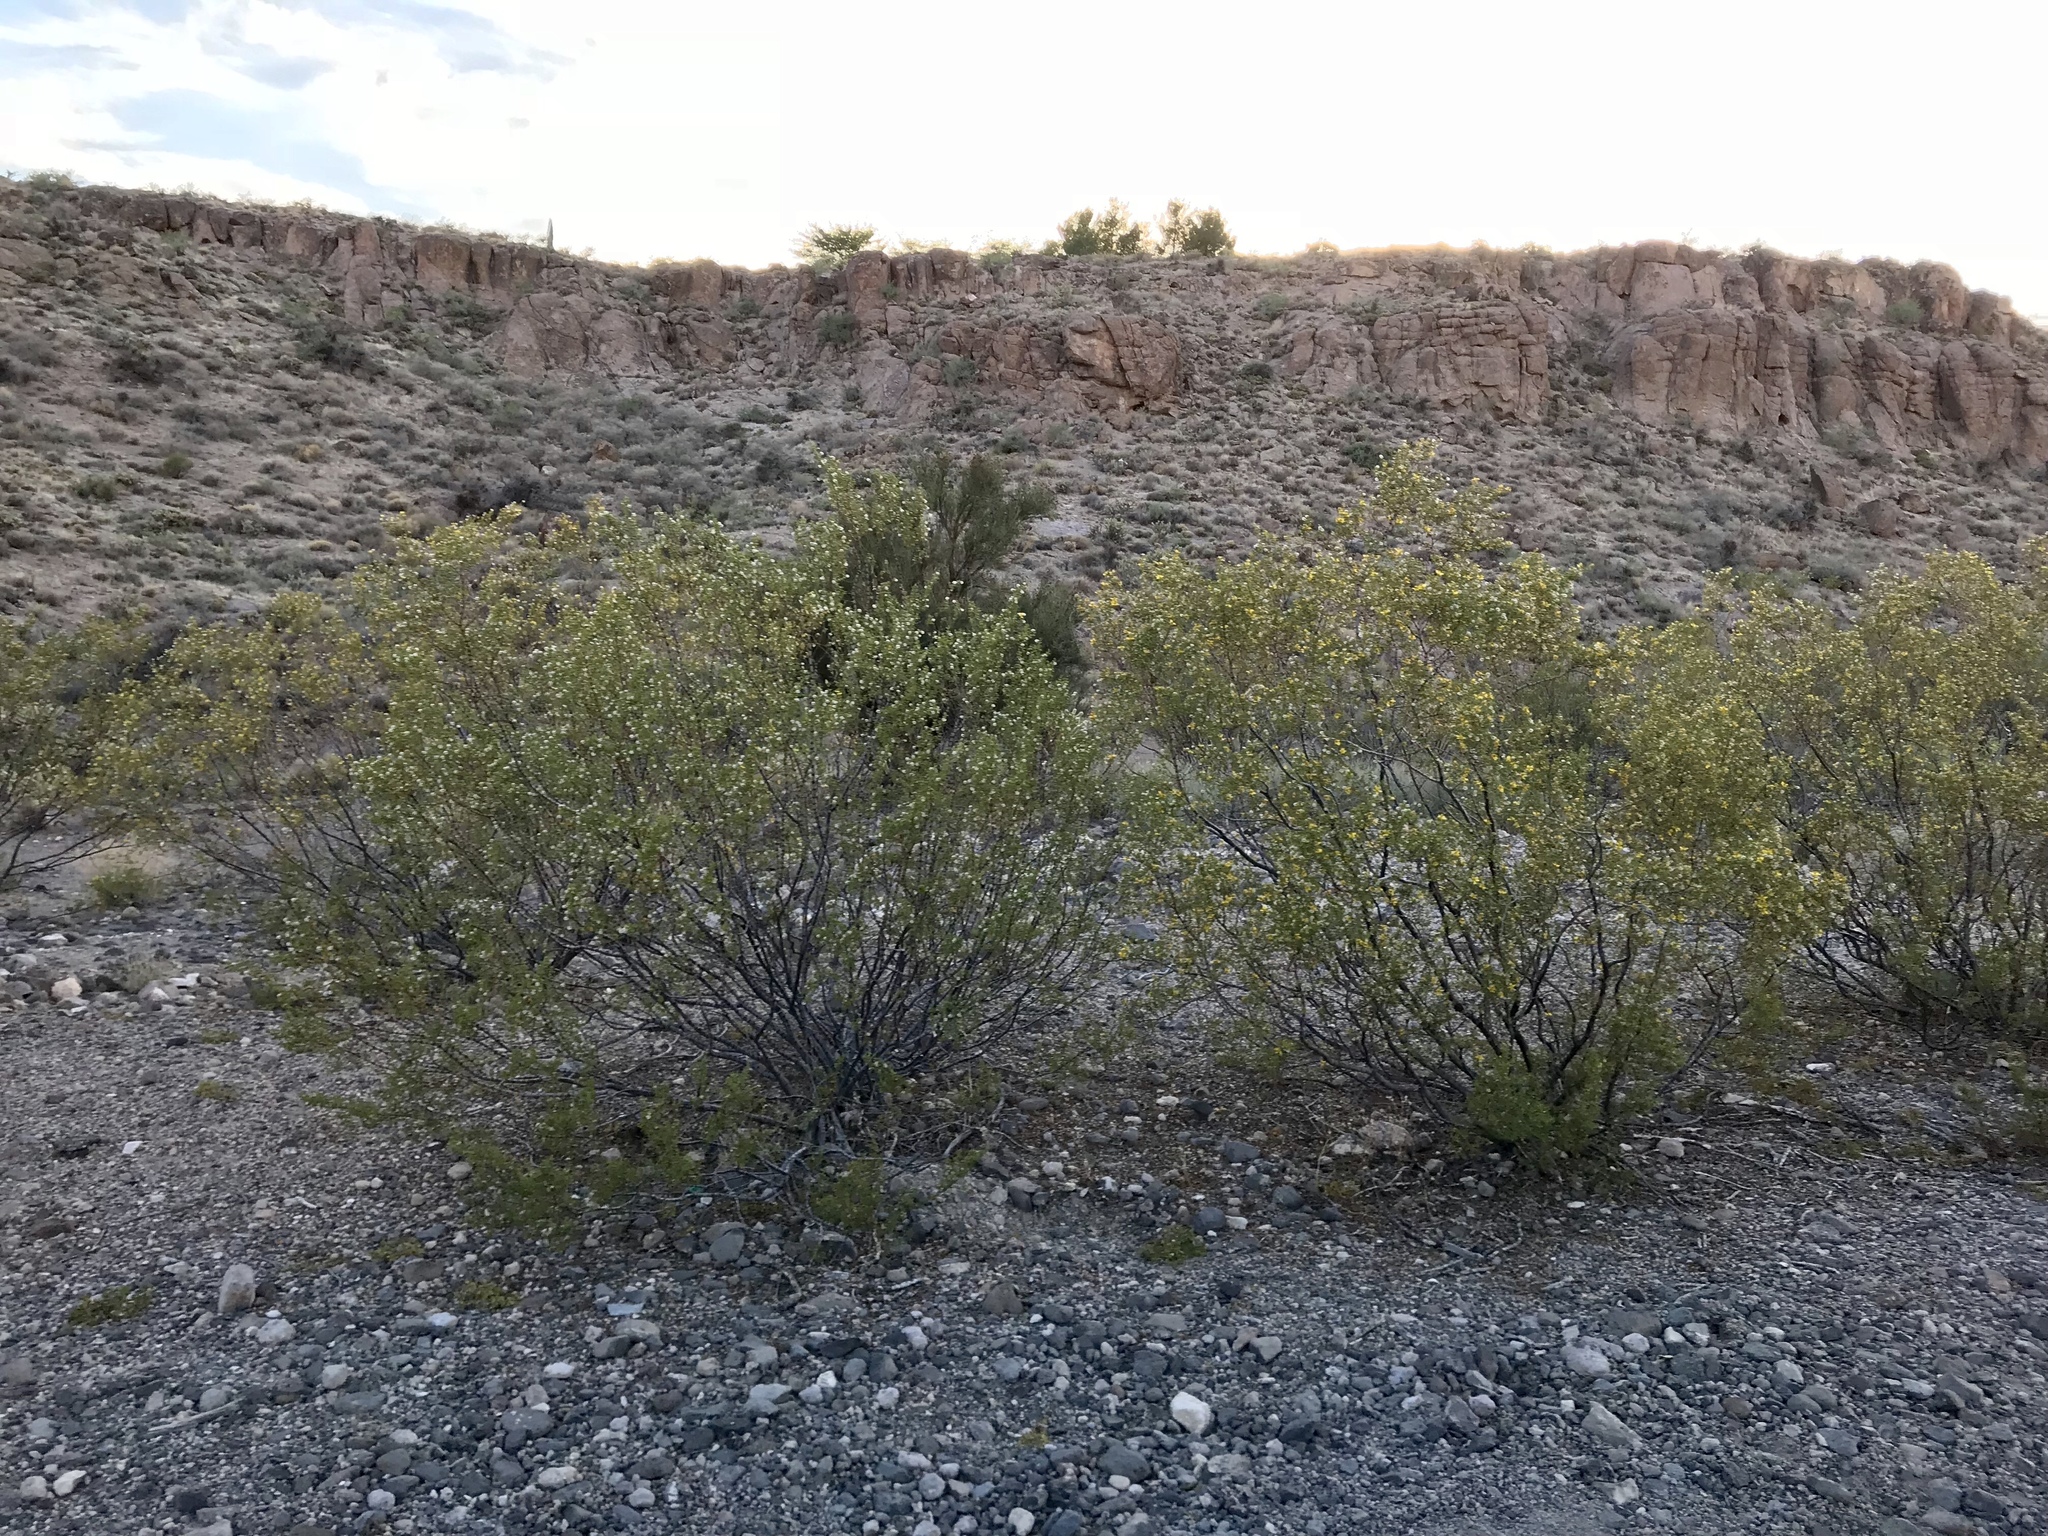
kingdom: Plantae
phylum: Tracheophyta
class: Magnoliopsida
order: Zygophyllales
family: Zygophyllaceae
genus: Larrea
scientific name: Larrea tridentata
